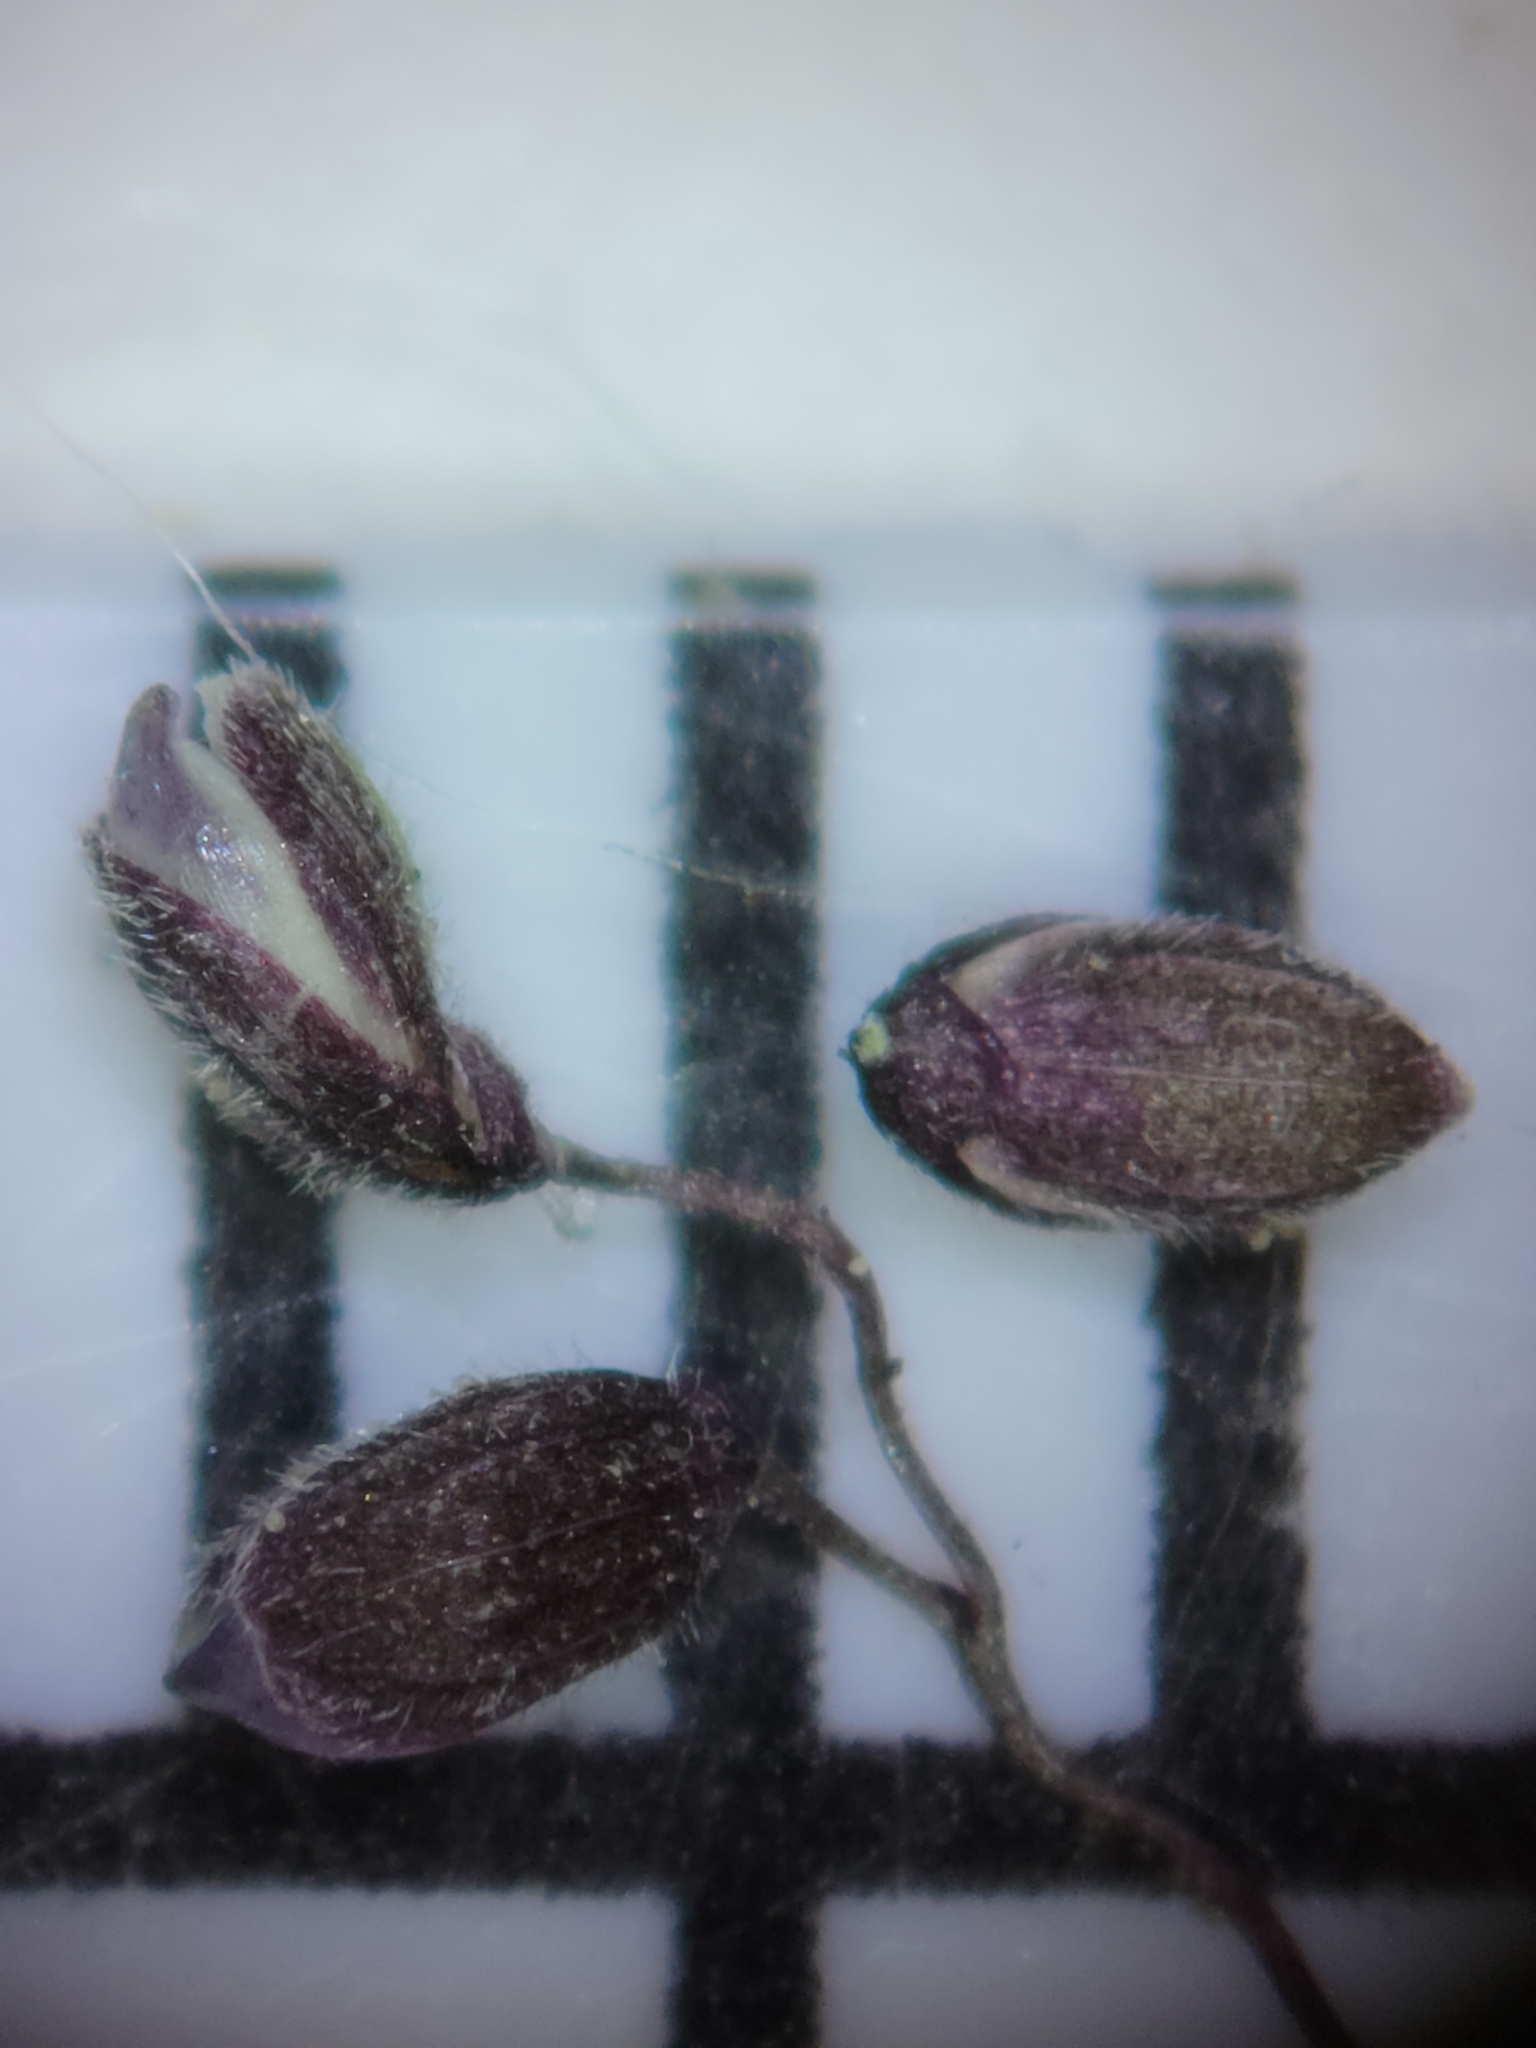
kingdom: Plantae
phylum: Tracheophyta
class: Liliopsida
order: Poales
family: Poaceae
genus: Dichanthelium
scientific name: Dichanthelium tenue
